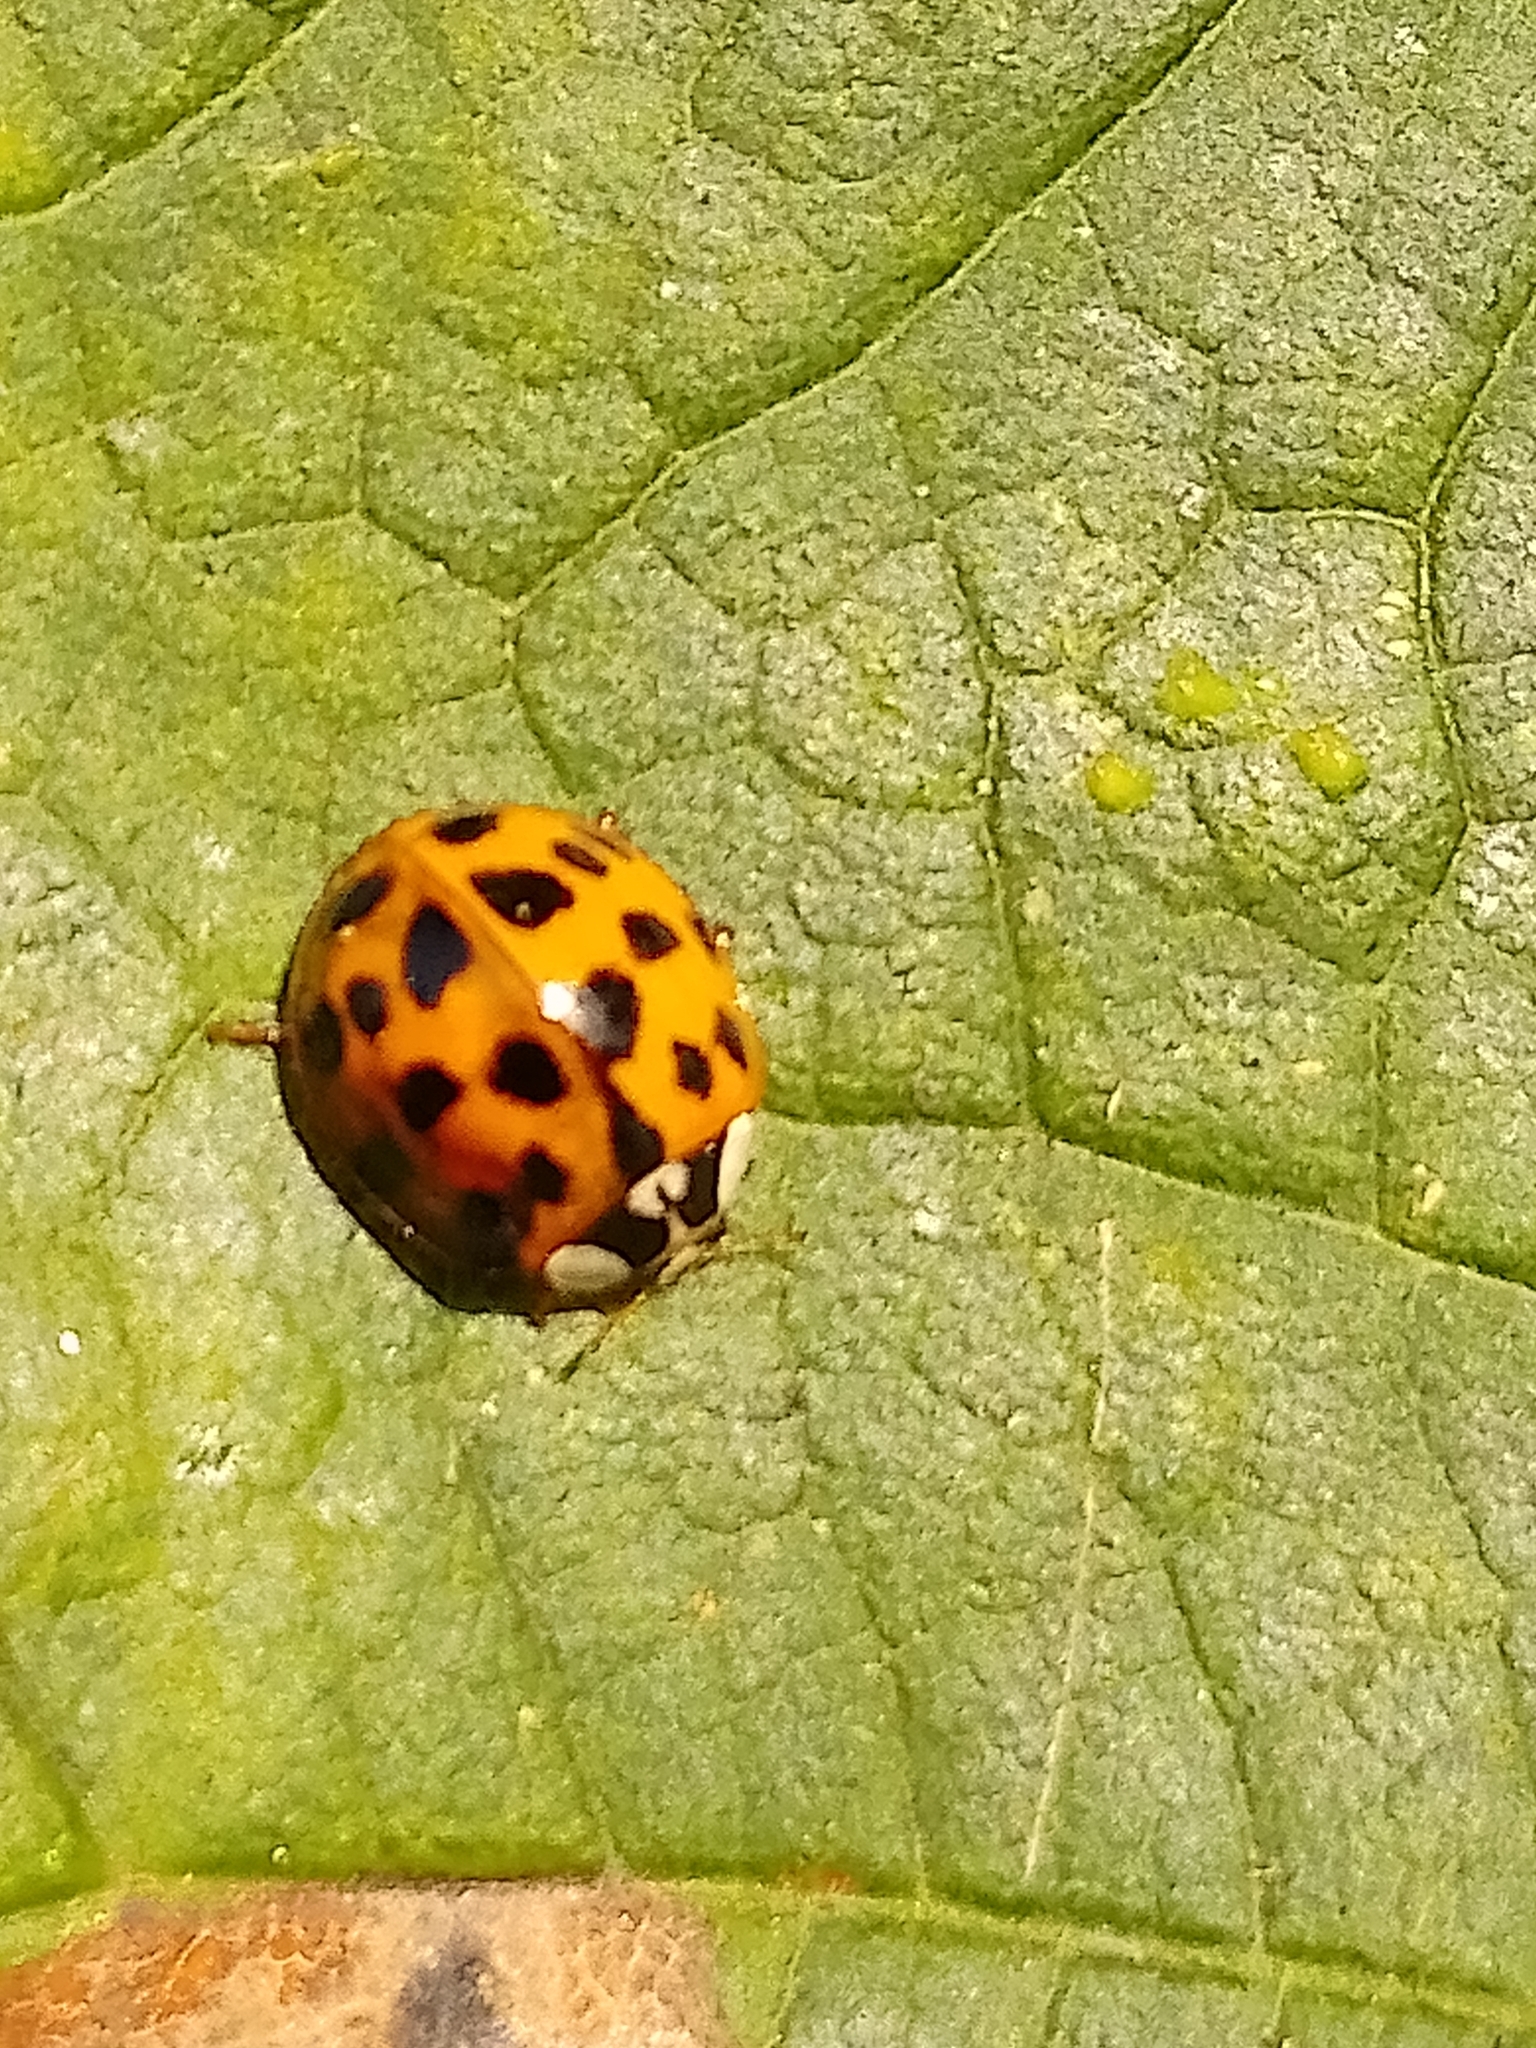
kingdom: Animalia
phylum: Arthropoda
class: Insecta
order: Coleoptera
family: Coccinellidae
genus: Harmonia
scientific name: Harmonia axyridis
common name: Harlequin ladybird
